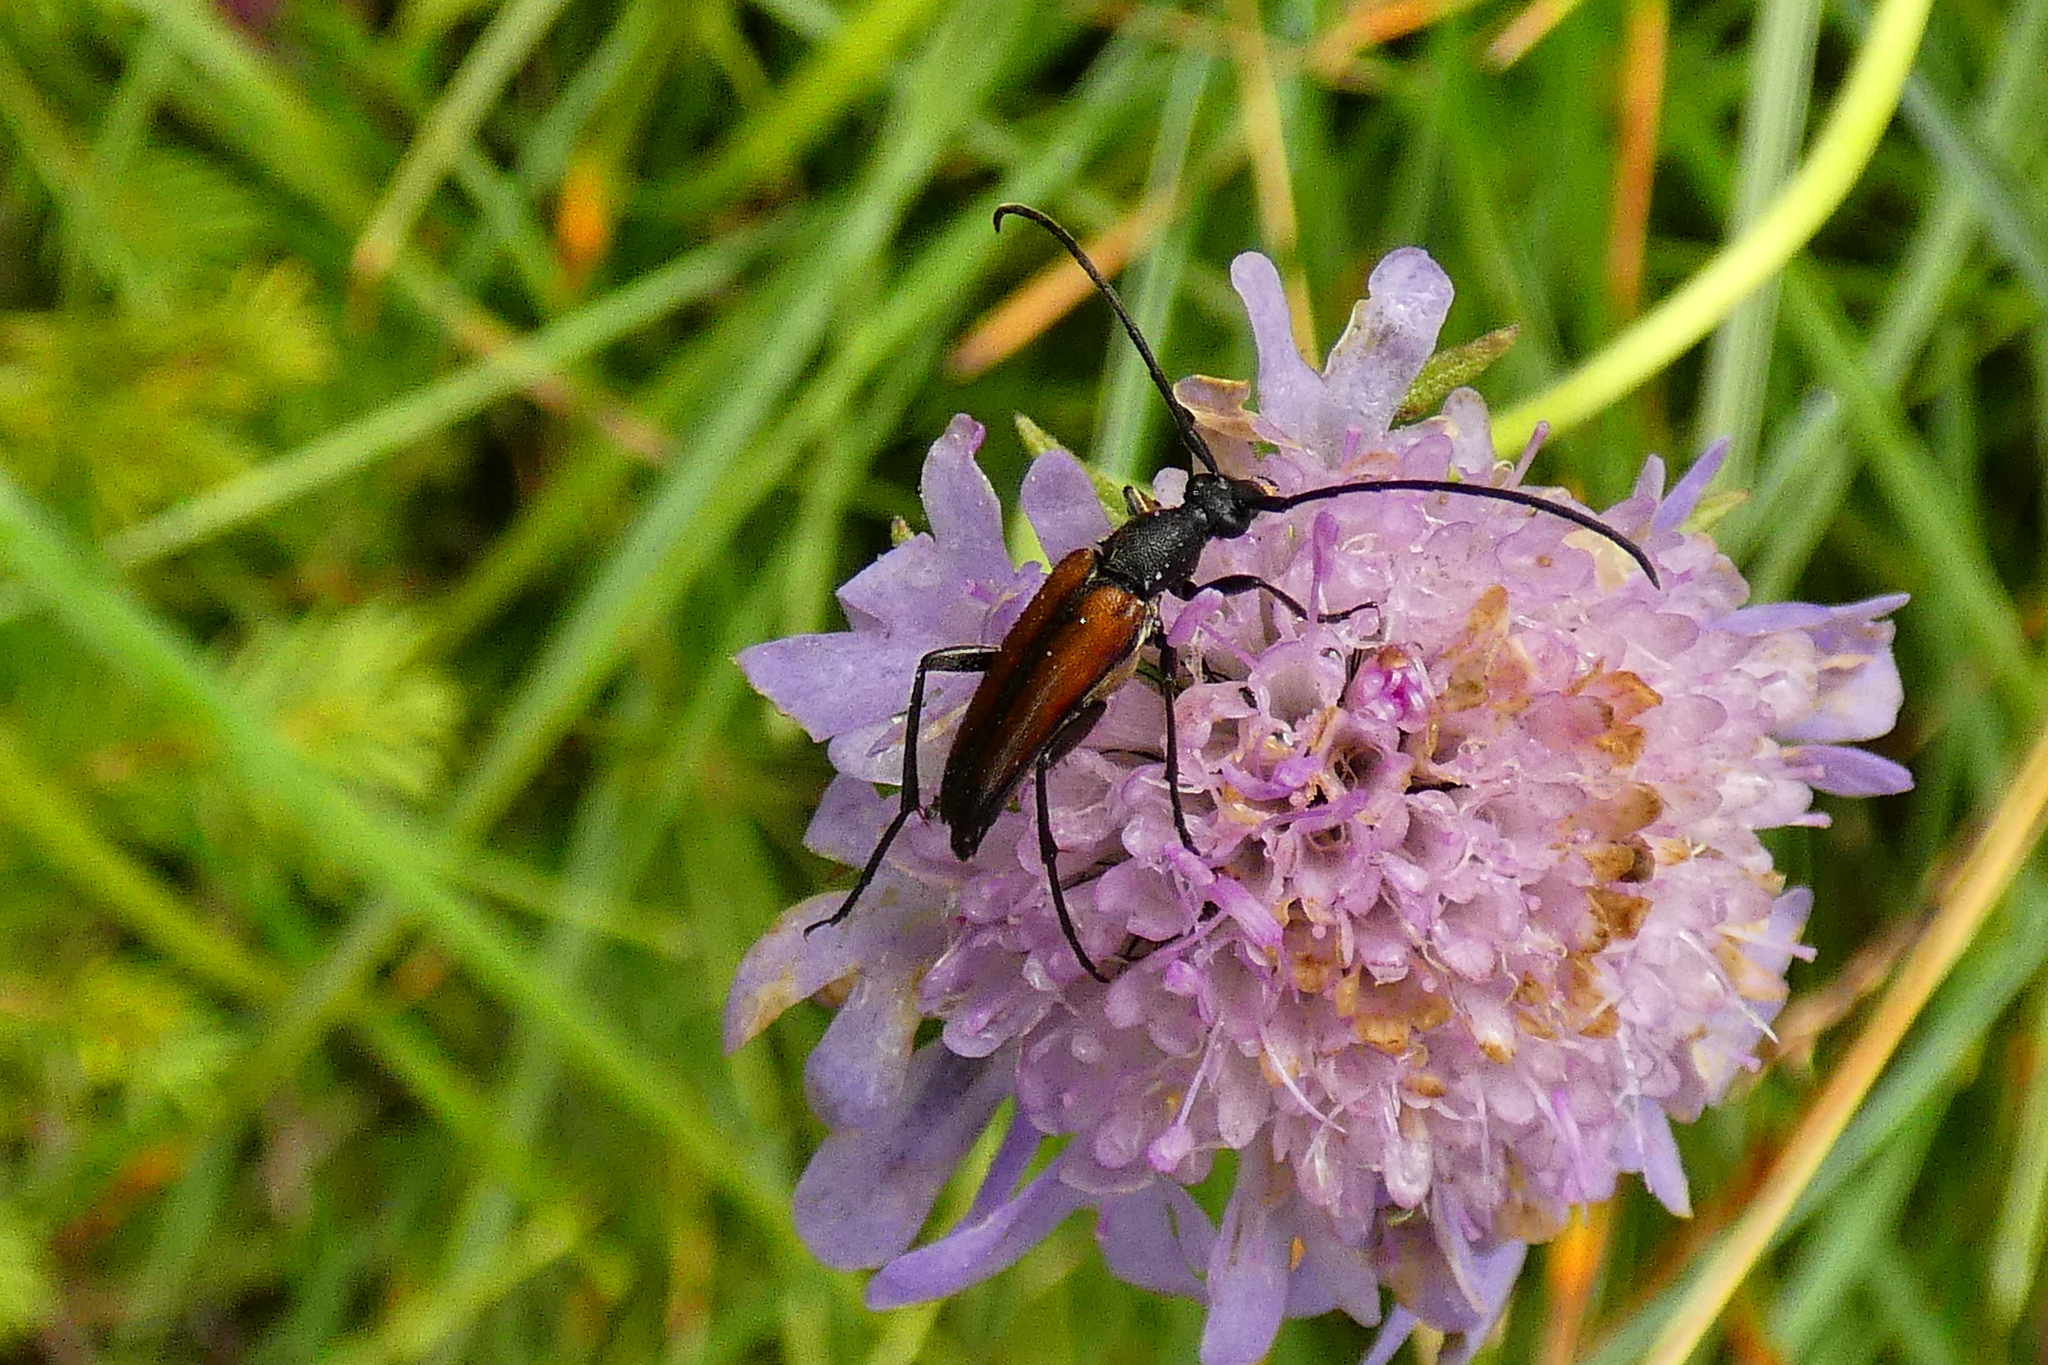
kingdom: Animalia
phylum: Arthropoda
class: Insecta
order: Coleoptera
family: Cerambycidae
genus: Stenurella
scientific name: Stenurella melanura
